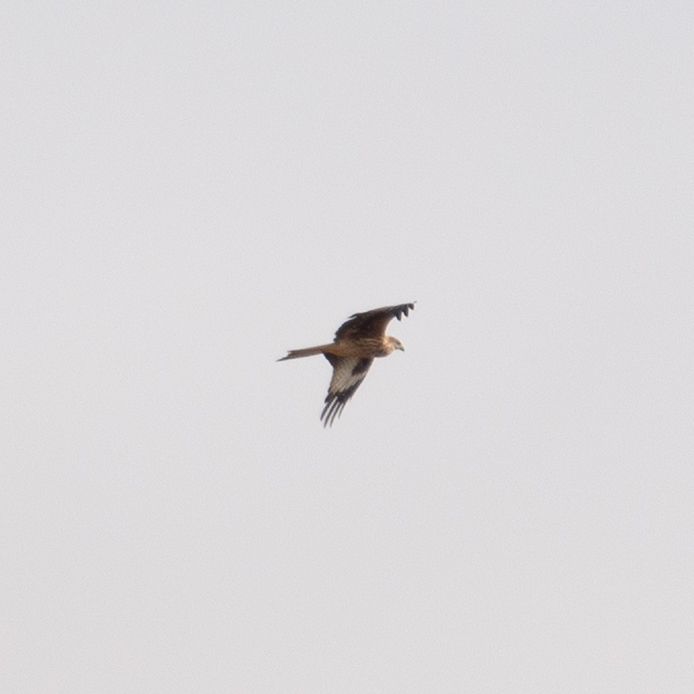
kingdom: Animalia
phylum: Chordata
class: Aves
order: Accipitriformes
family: Accipitridae
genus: Milvus
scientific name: Milvus milvus
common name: Red kite
